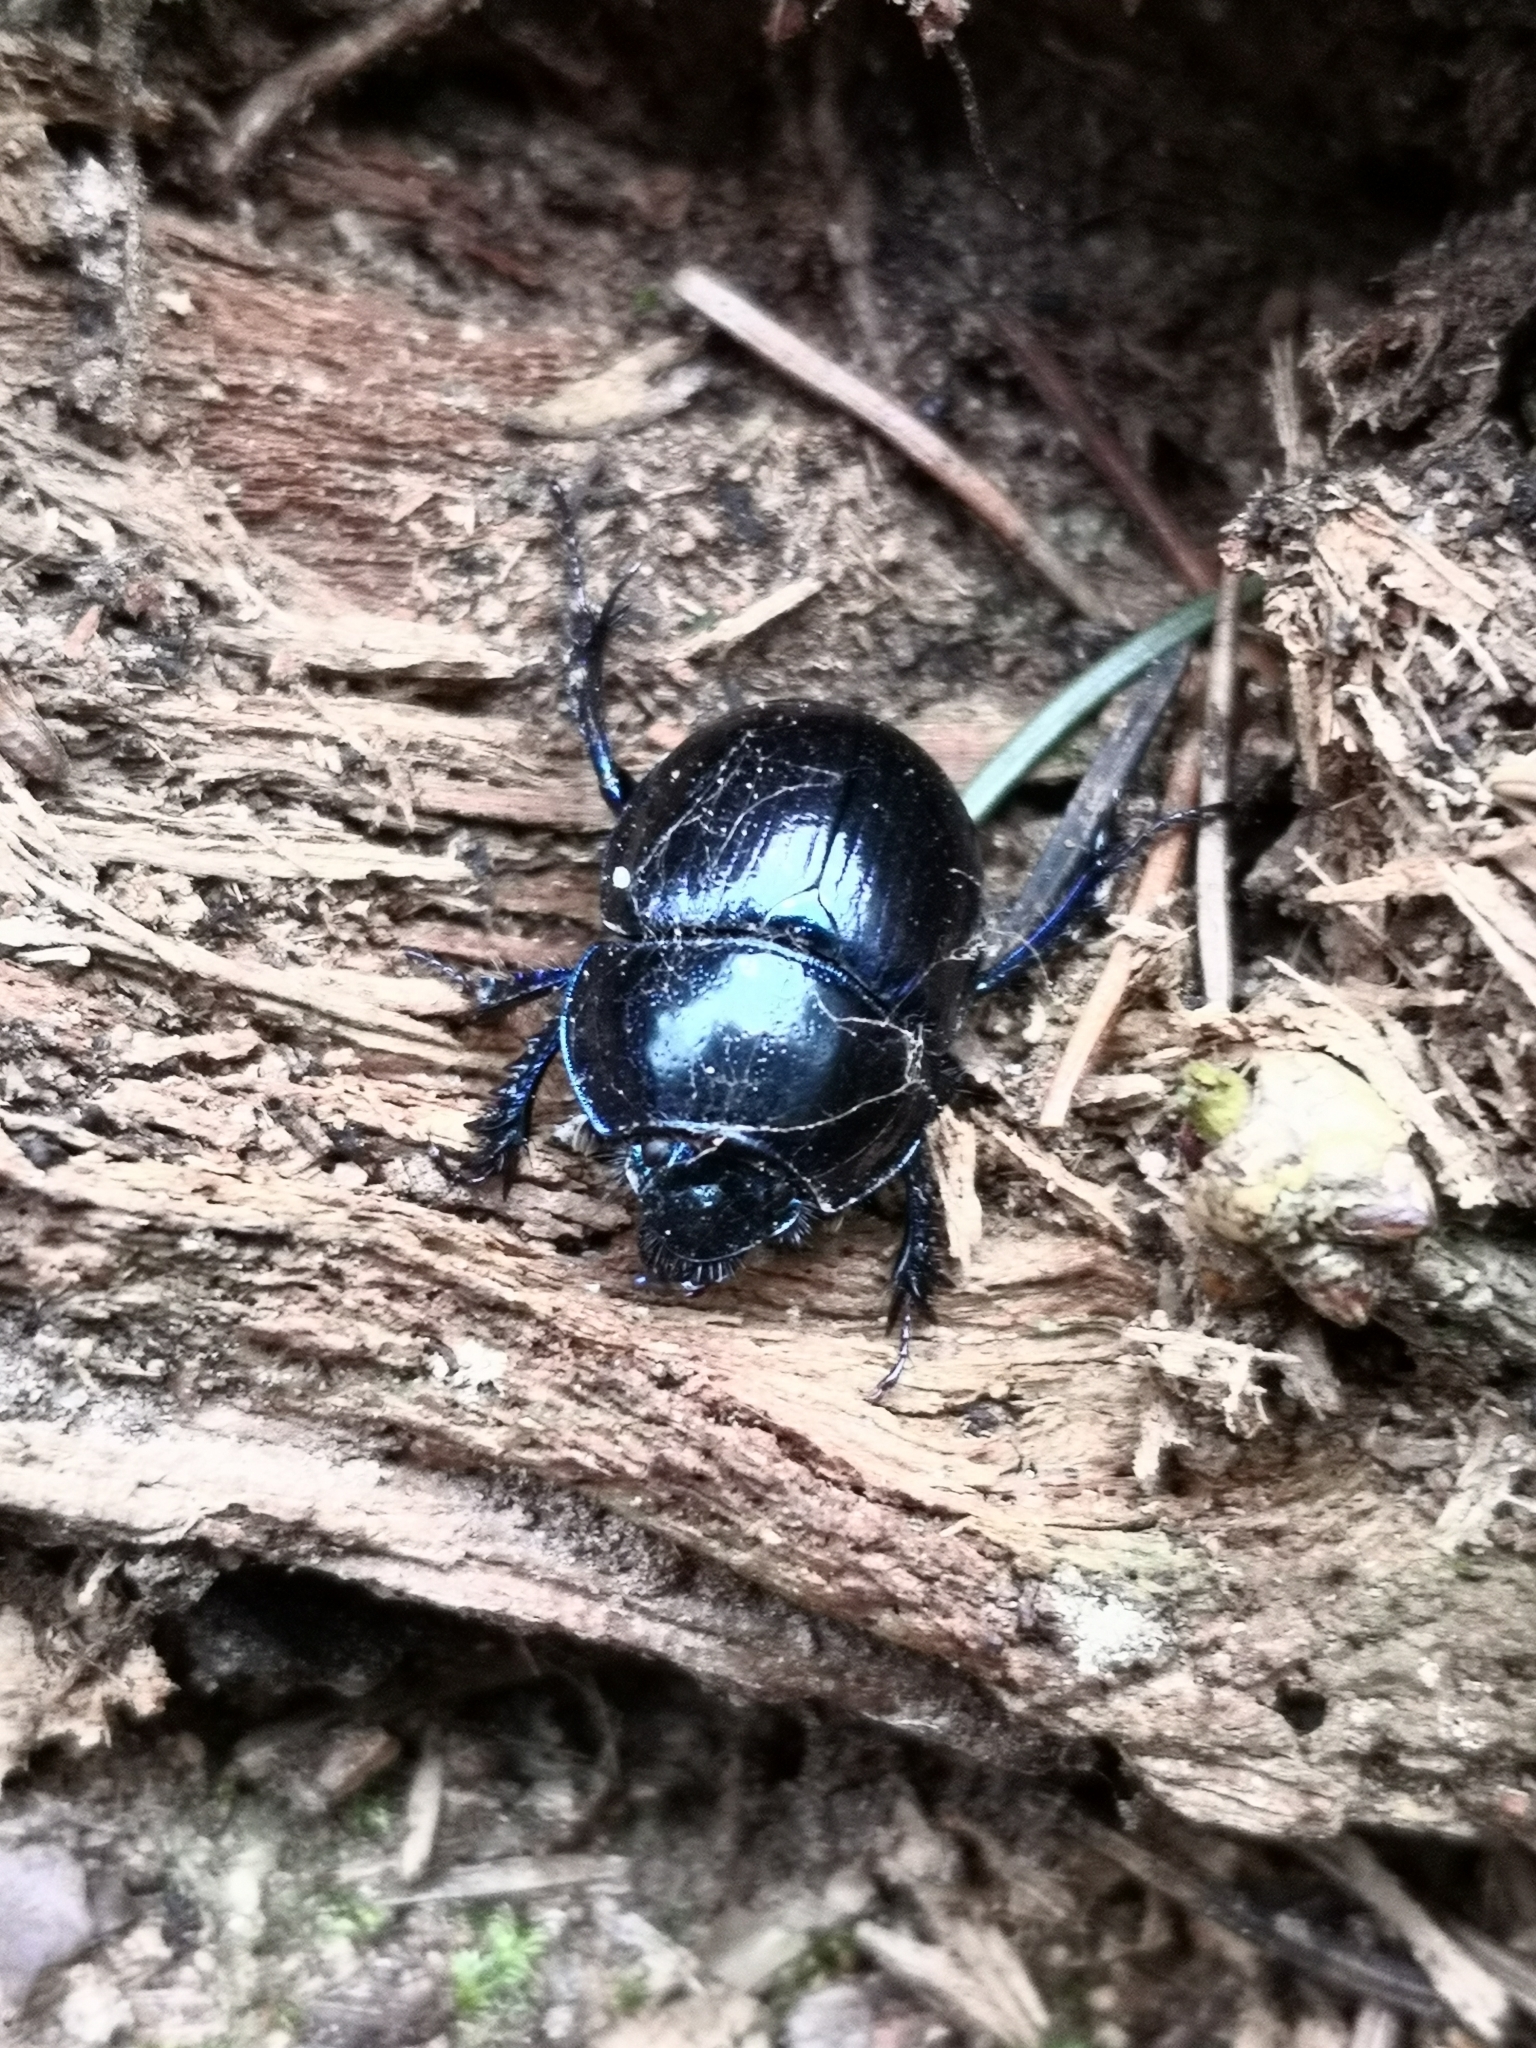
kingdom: Animalia
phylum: Arthropoda
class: Insecta
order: Coleoptera
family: Geotrupidae
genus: Anoplotrupes
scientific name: Anoplotrupes stercorosus
